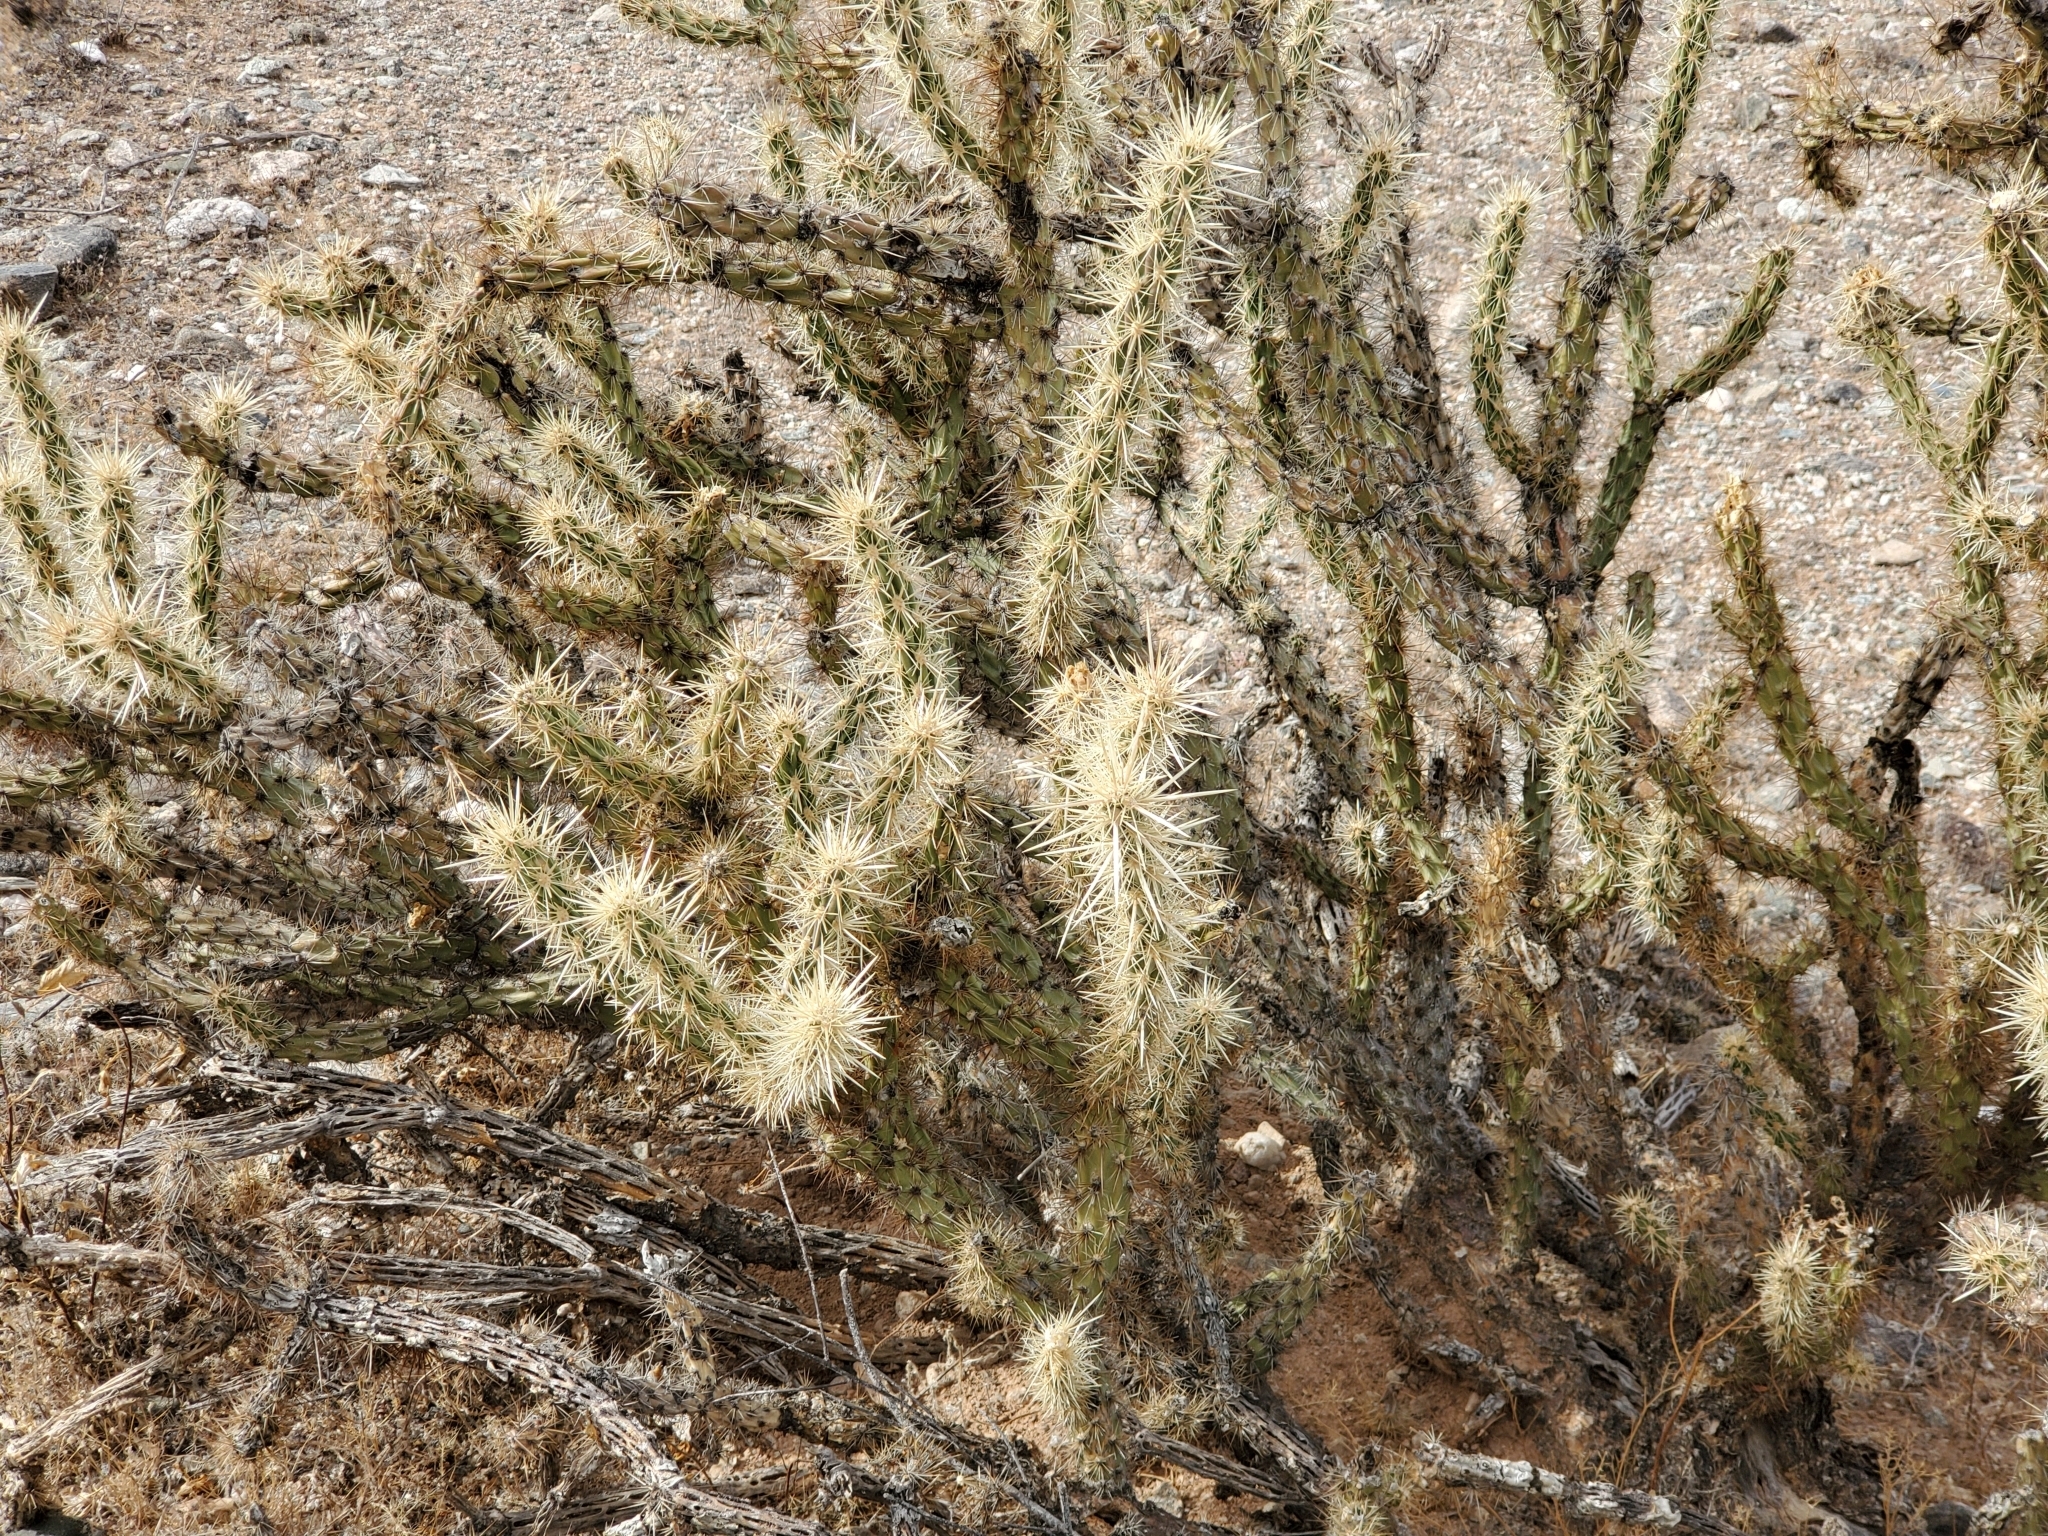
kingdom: Plantae
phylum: Tracheophyta
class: Magnoliopsida
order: Caryophyllales
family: Cactaceae
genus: Cylindropuntia
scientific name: Cylindropuntia acanthocarpa
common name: Buckhorn cholla
